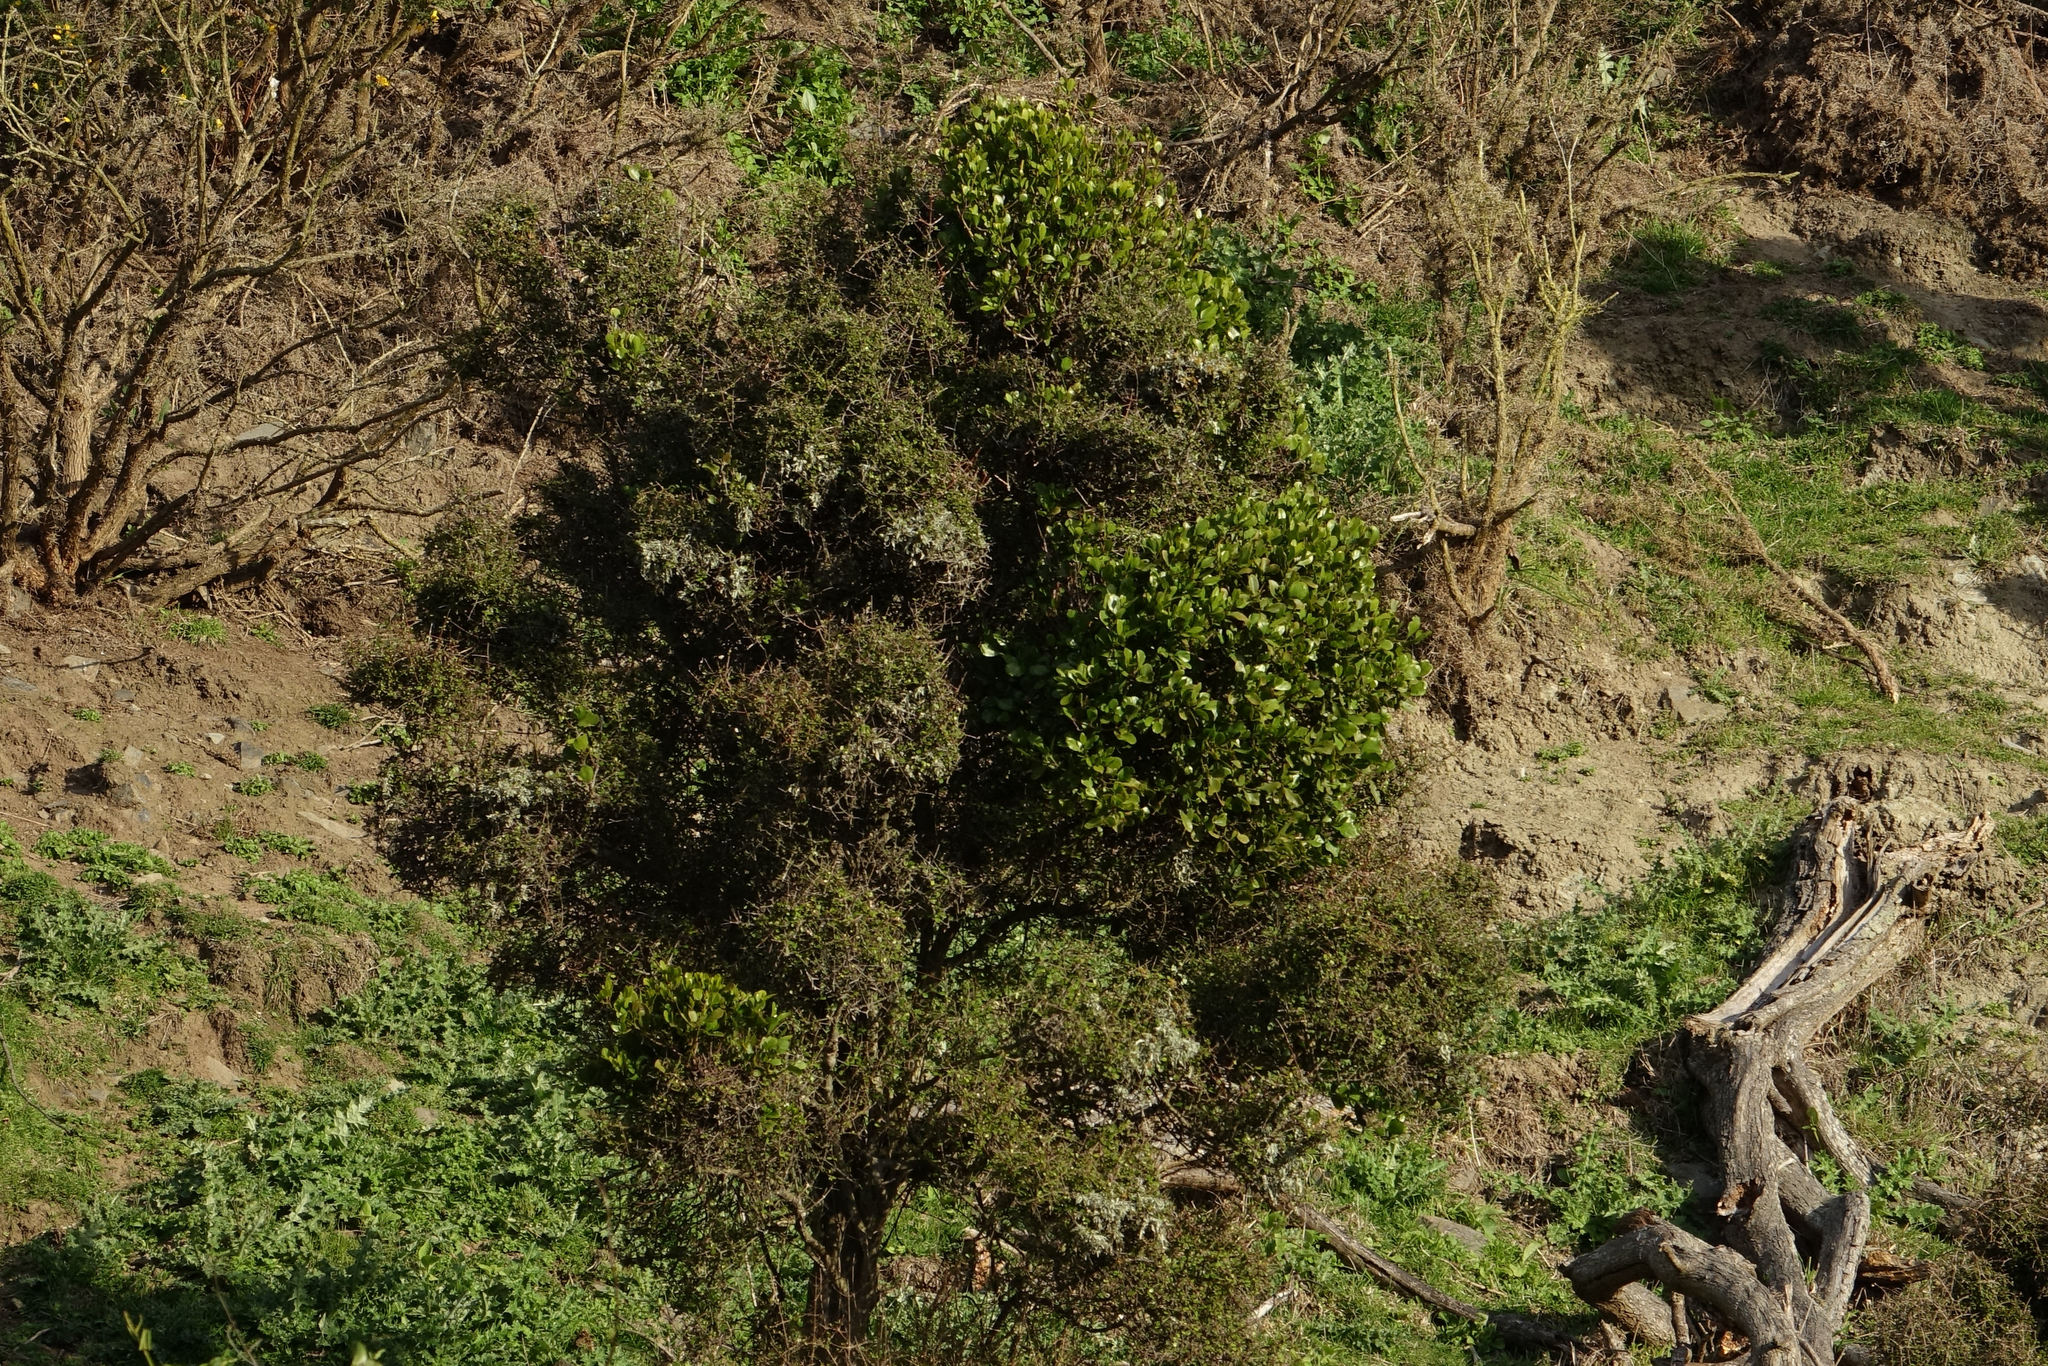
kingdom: Plantae
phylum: Tracheophyta
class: Magnoliopsida
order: Santalales
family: Loranthaceae
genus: Ileostylus
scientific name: Ileostylus micranthus
